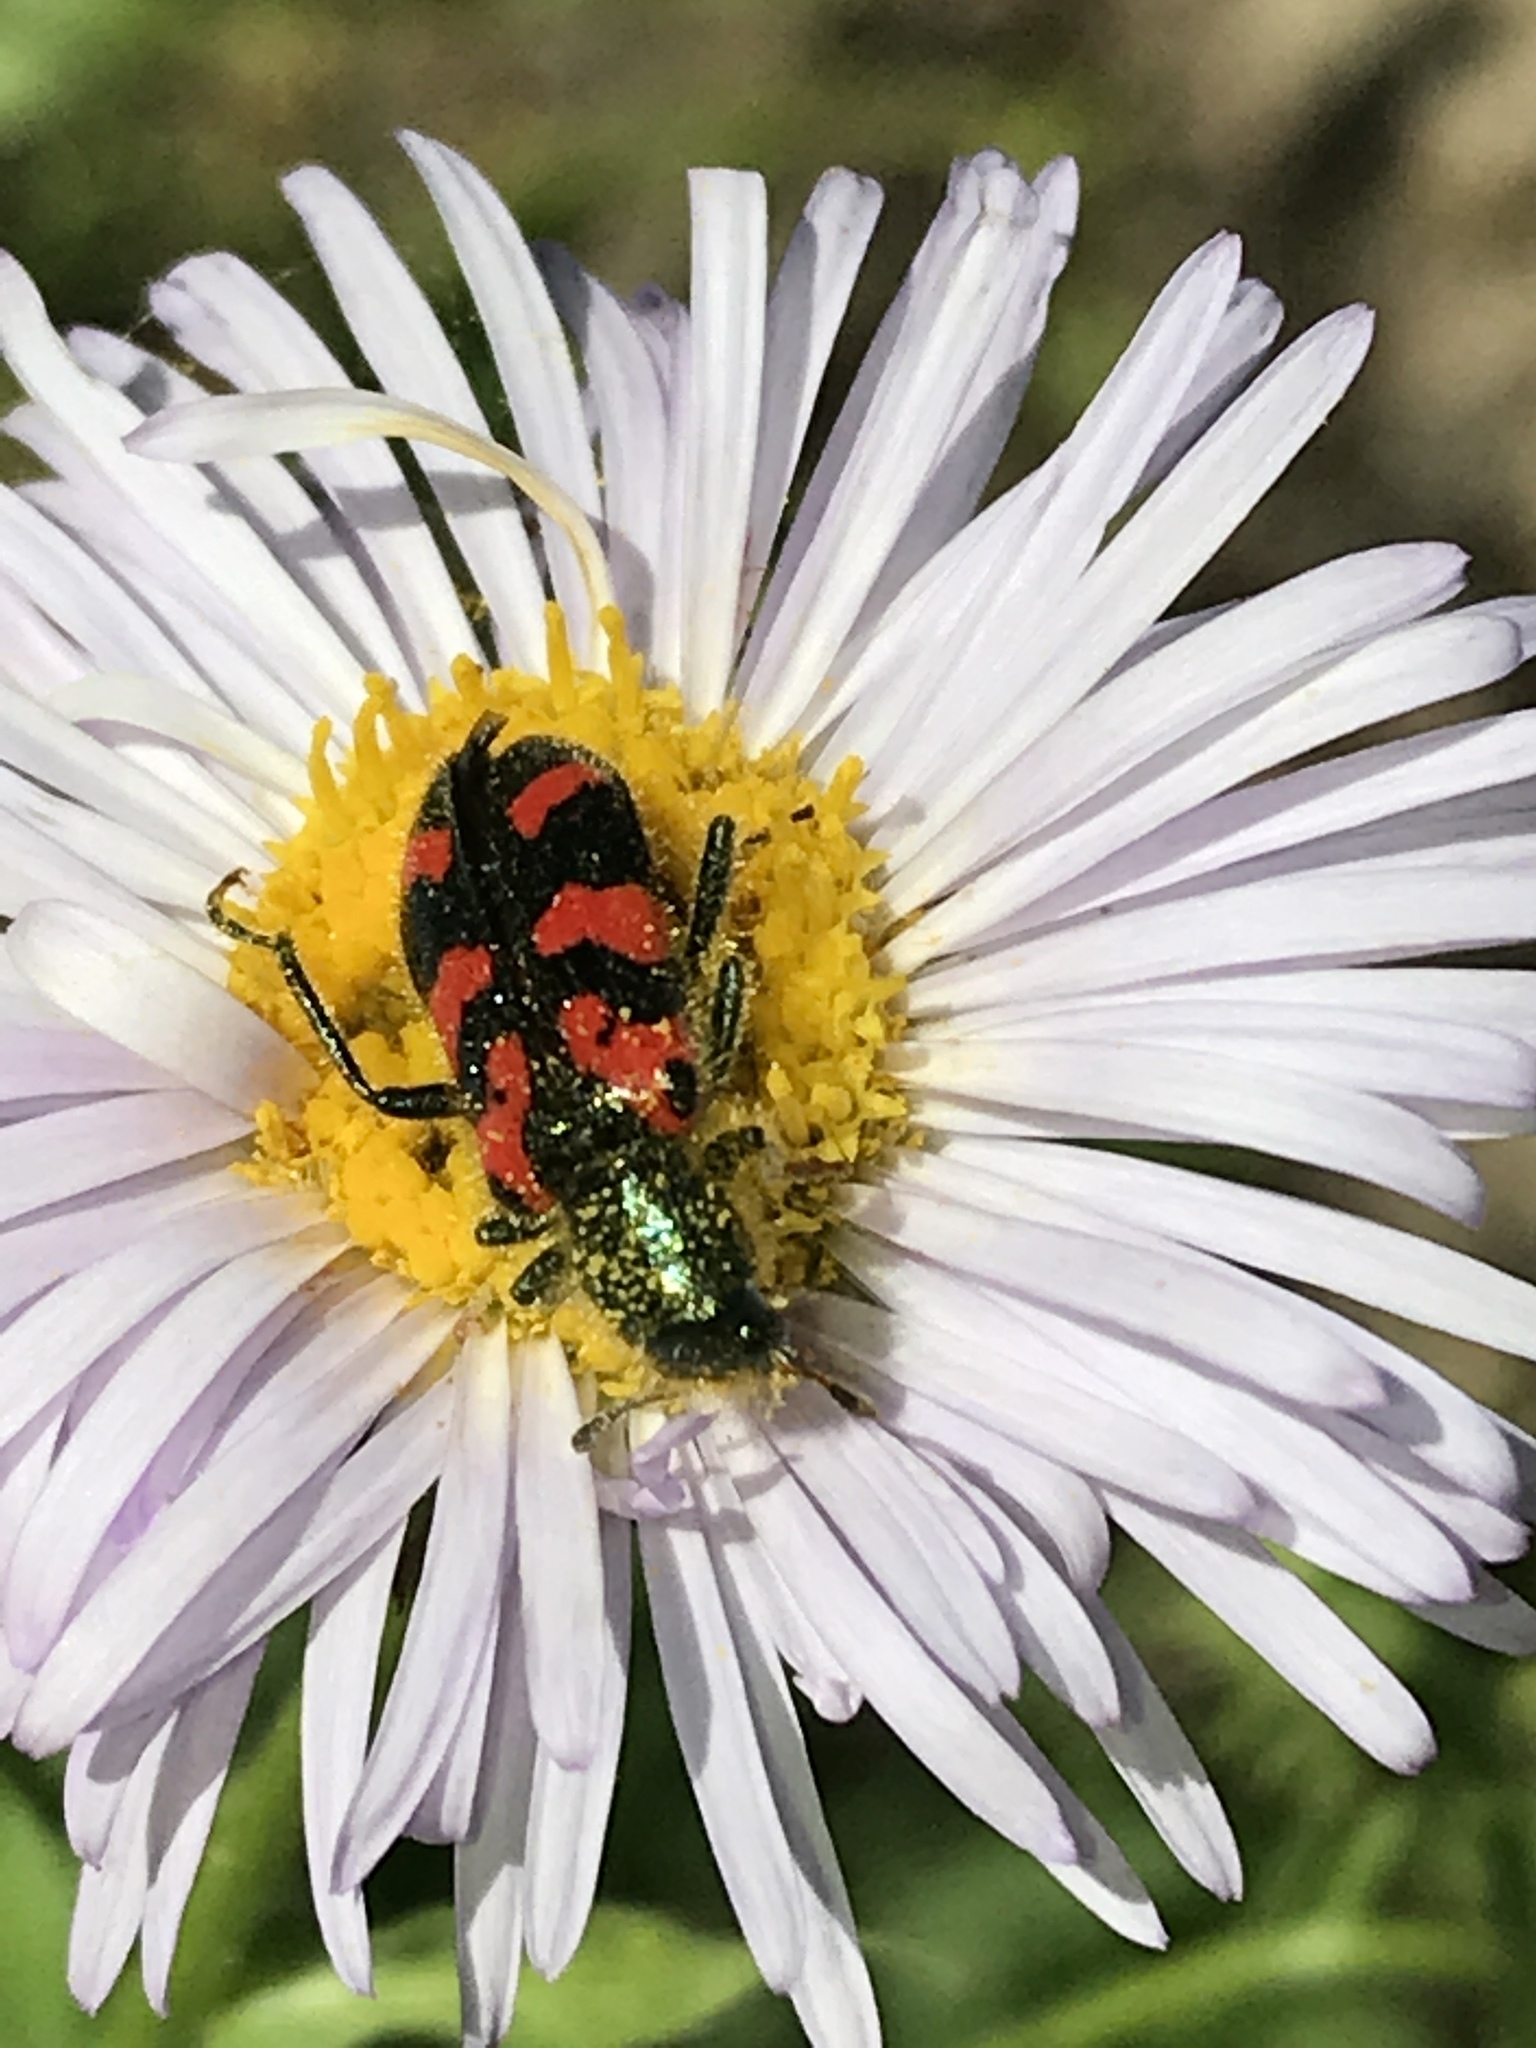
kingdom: Animalia
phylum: Arthropoda
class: Insecta
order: Coleoptera
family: Cleridae
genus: Trichodes
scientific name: Trichodes ornatus
